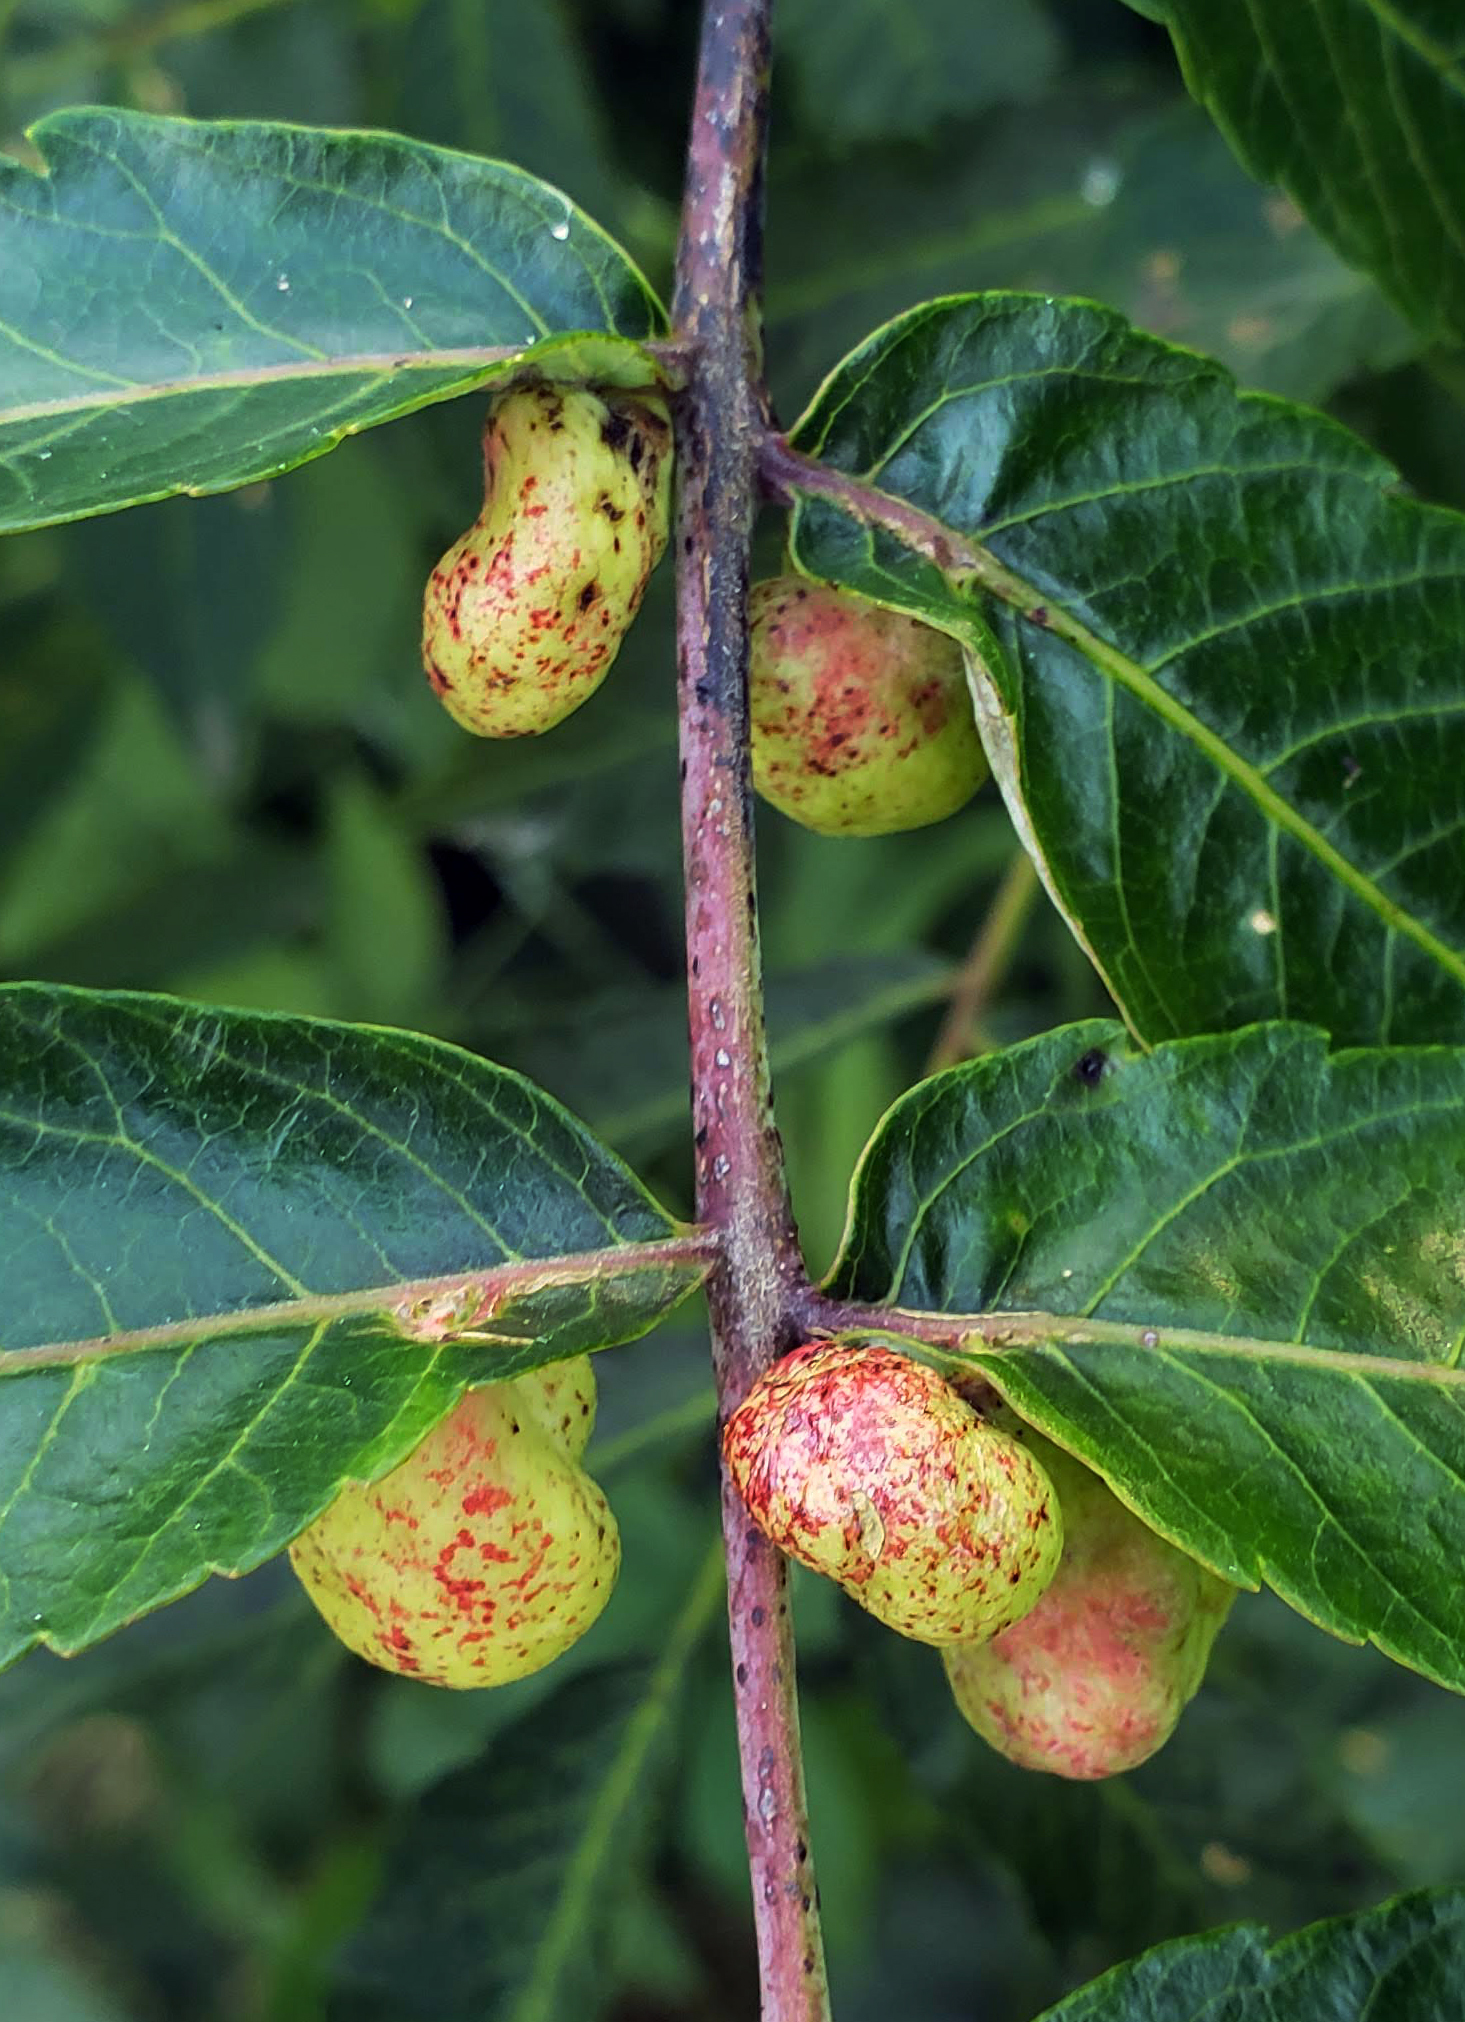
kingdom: Animalia
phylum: Arthropoda
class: Insecta
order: Hemiptera
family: Aphididae
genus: Melaphis
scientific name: Melaphis rhois
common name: Sumac gall aphid
